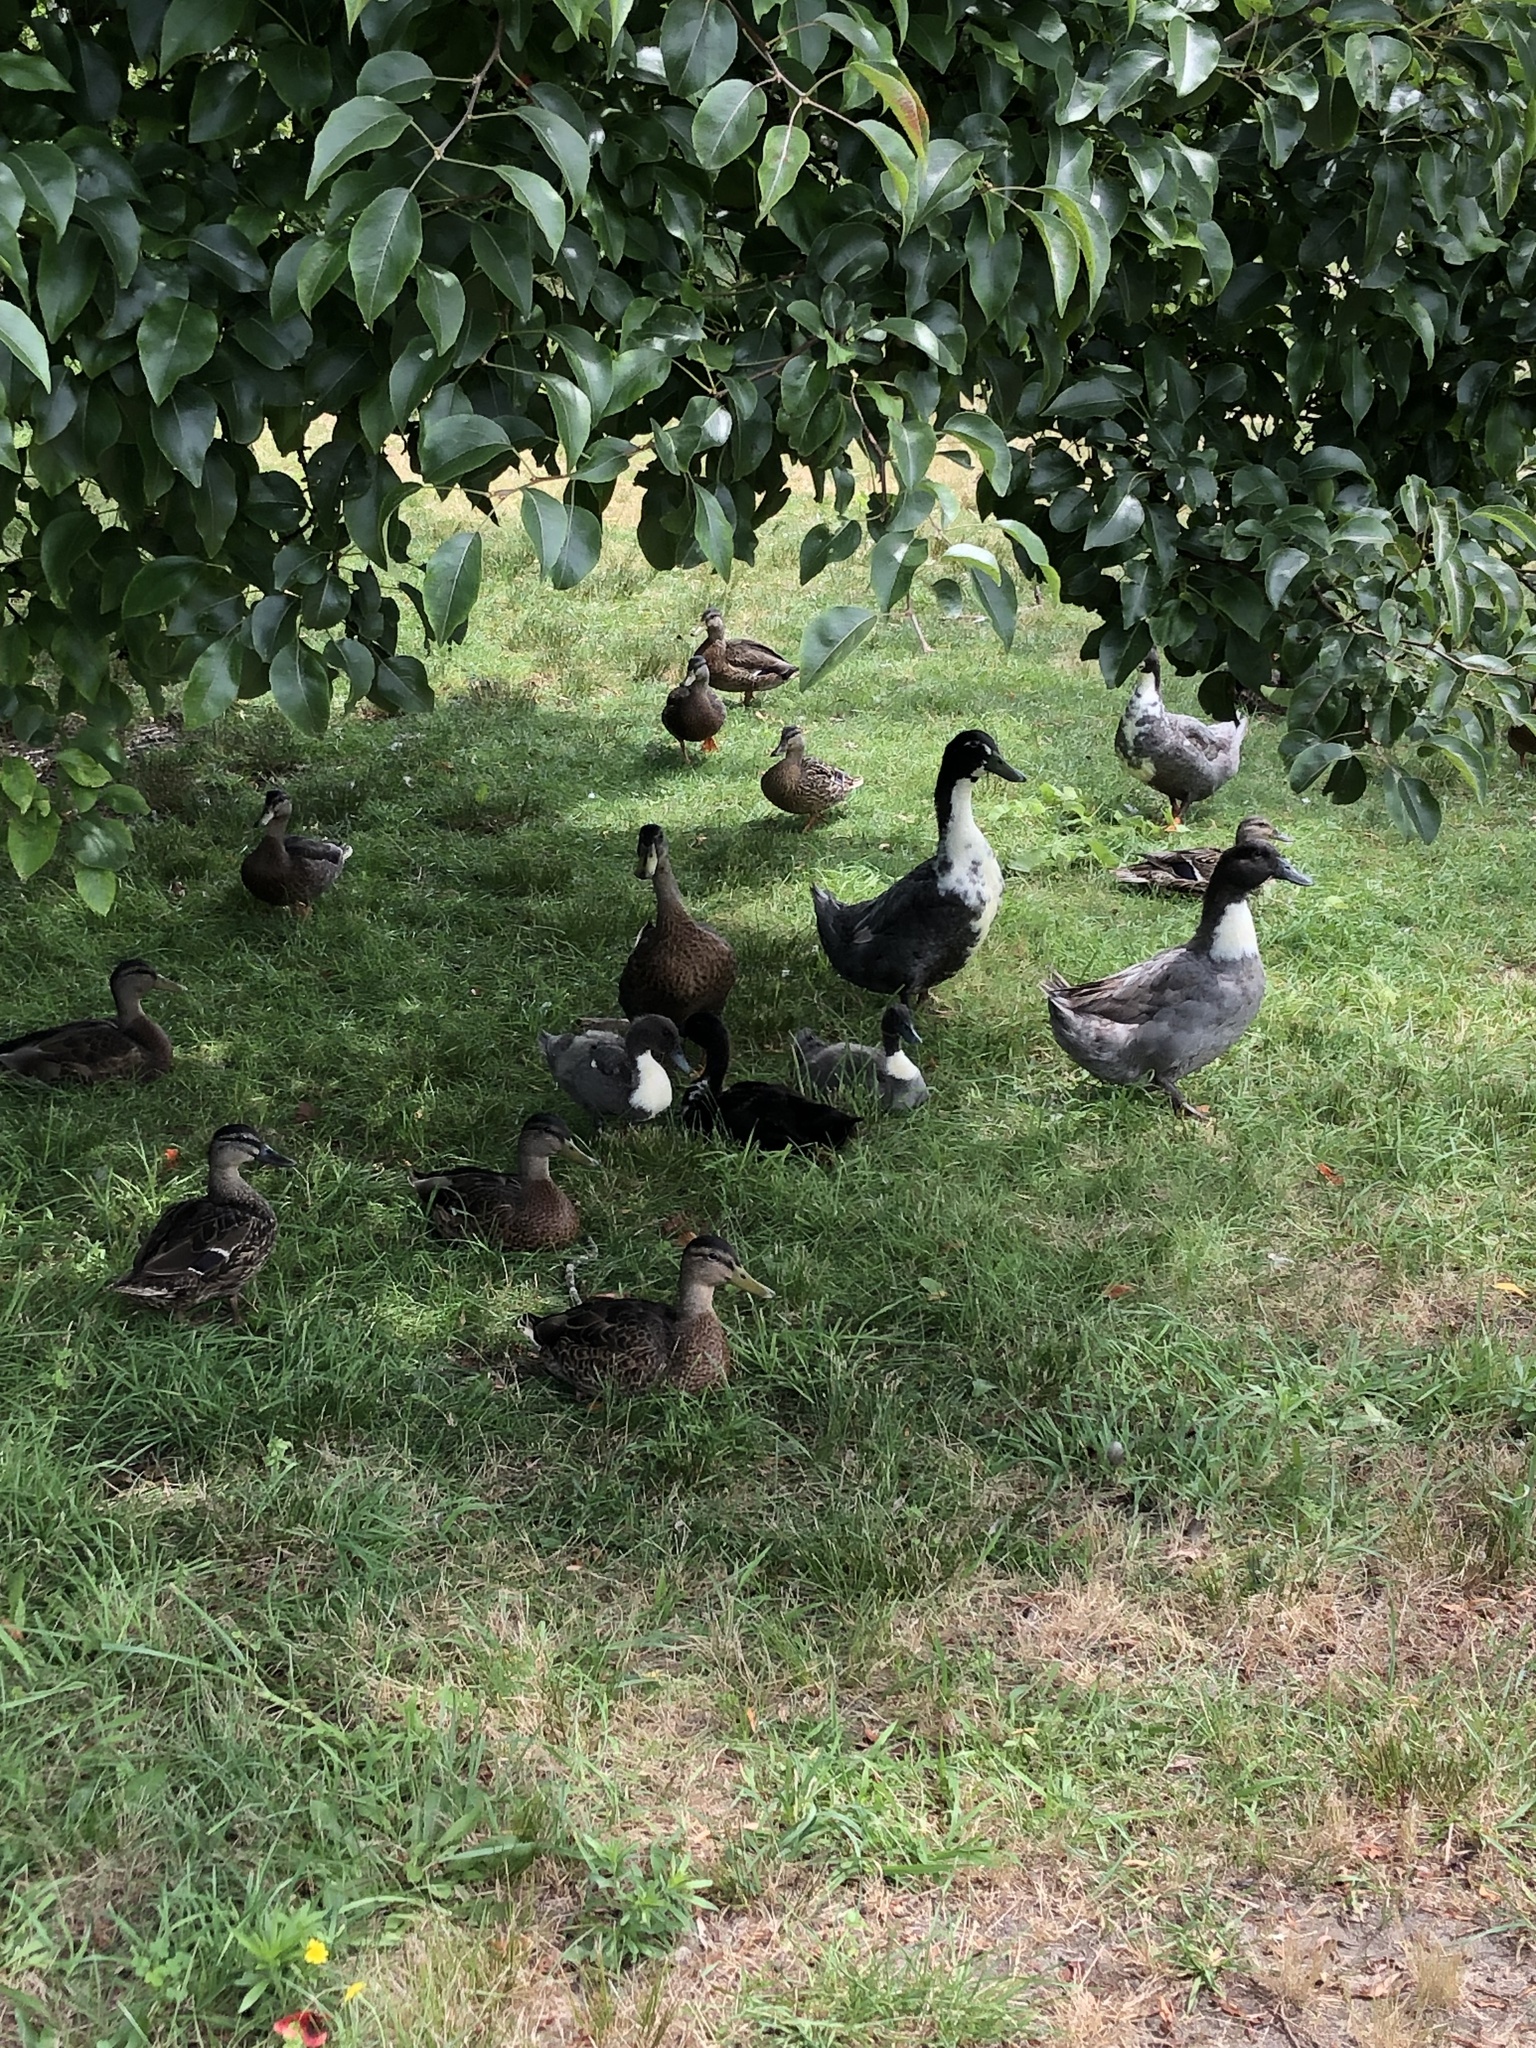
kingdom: Animalia
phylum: Chordata
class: Aves
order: Anseriformes
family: Anatidae
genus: Anas
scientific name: Anas platyrhynchos
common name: Mallard
